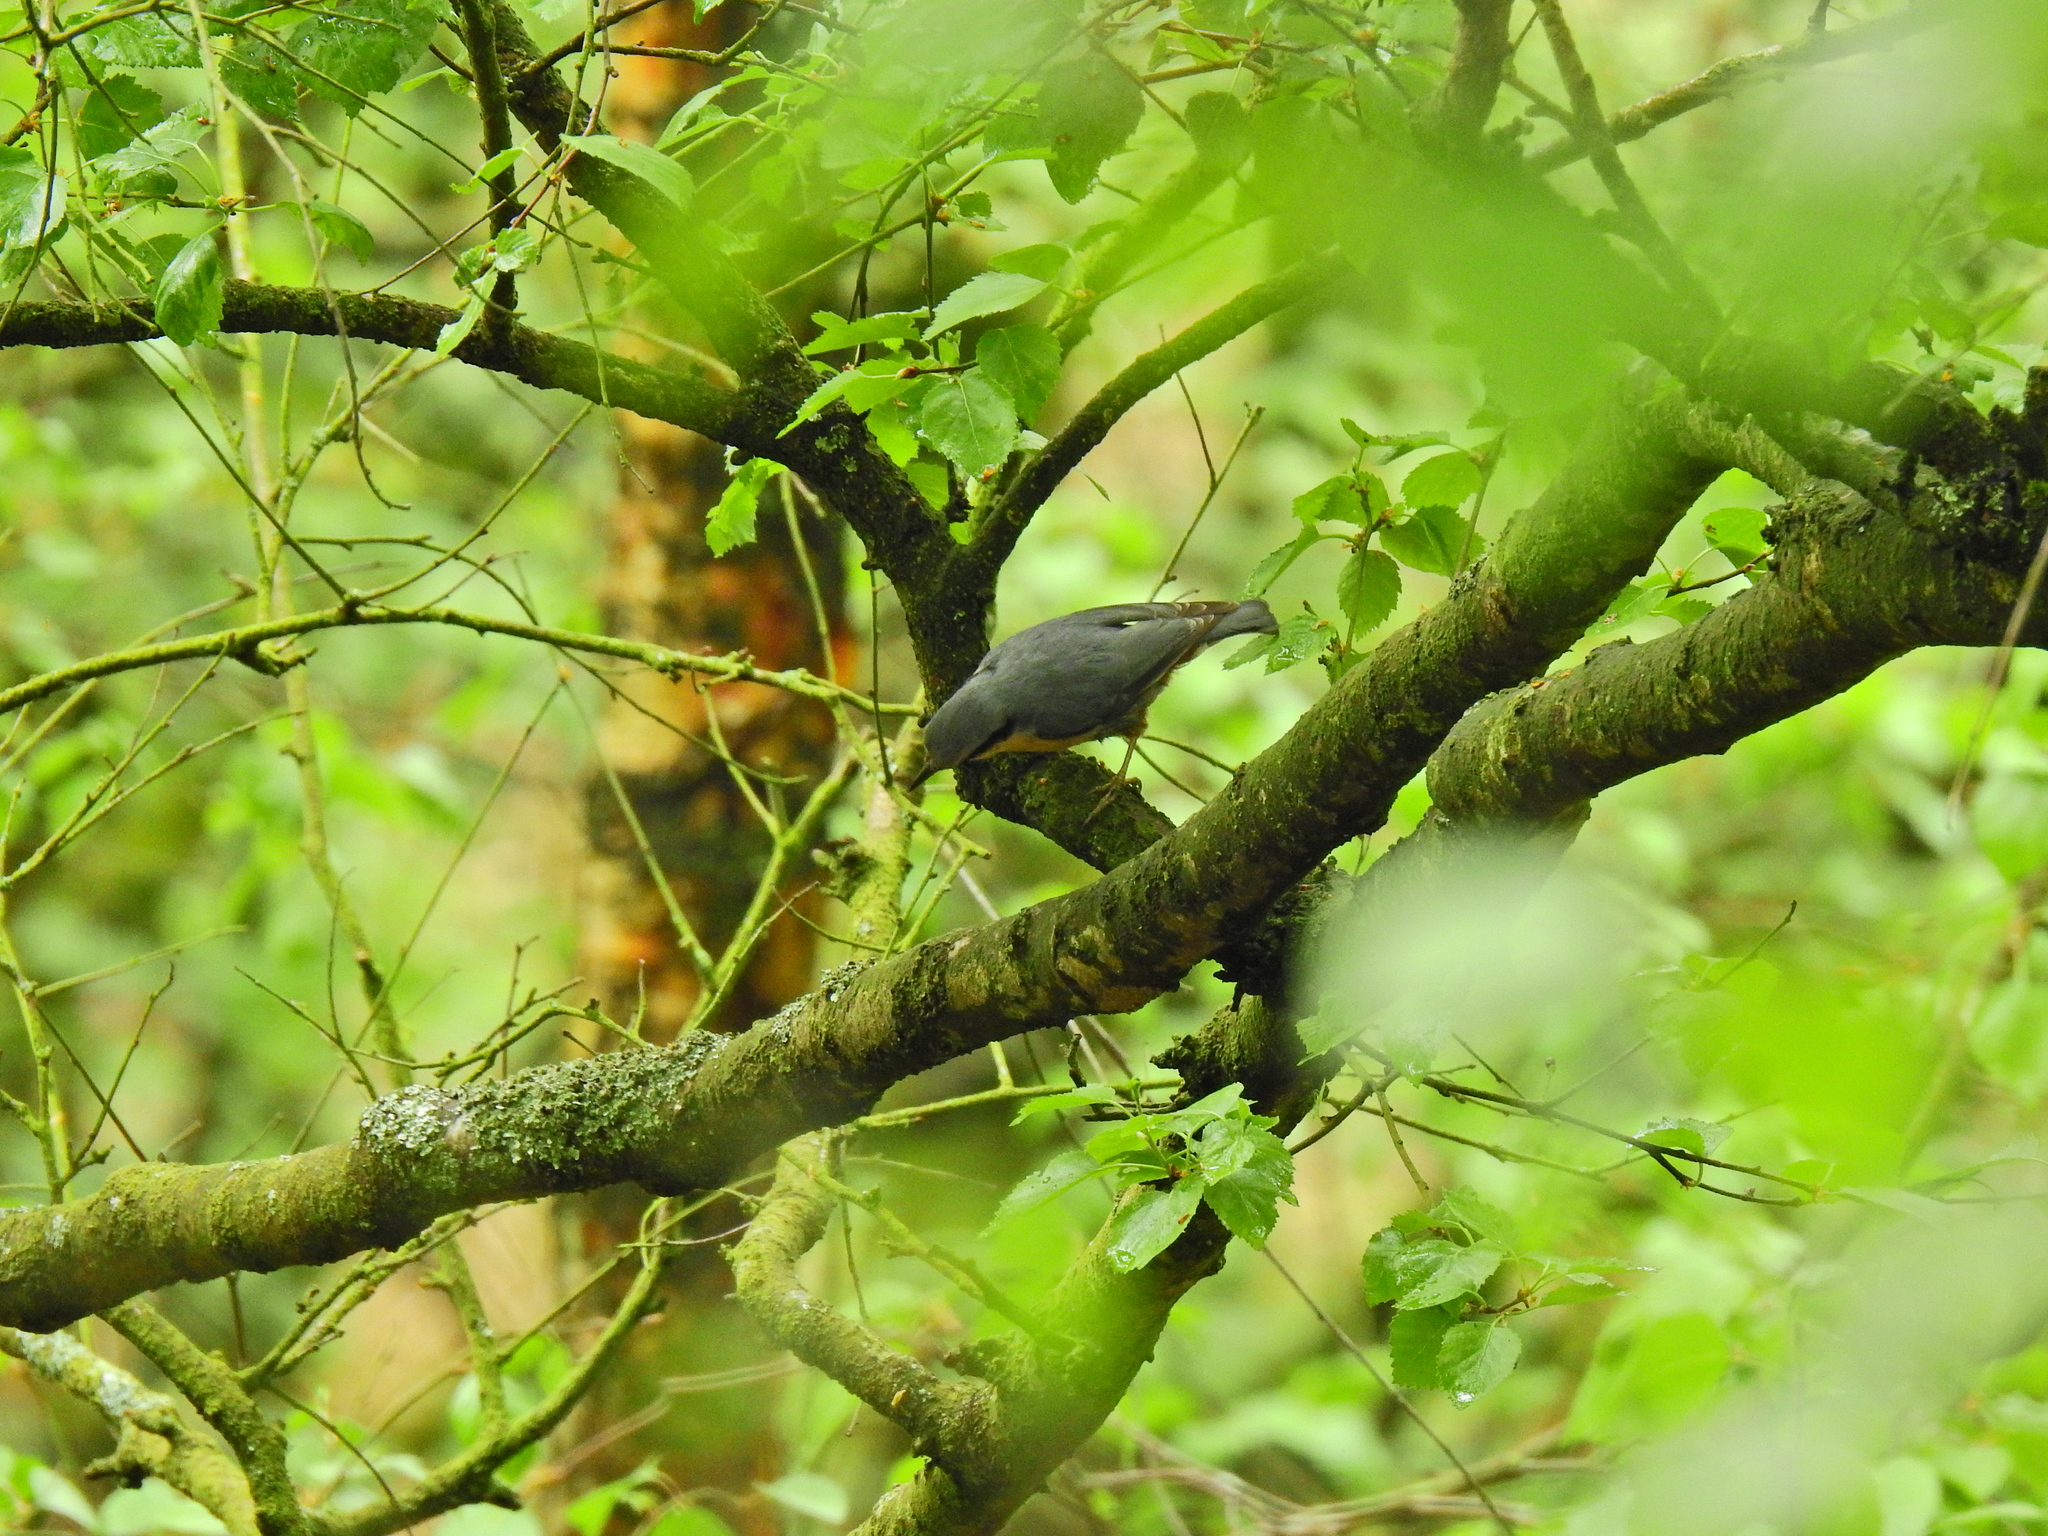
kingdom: Animalia
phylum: Chordata
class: Aves
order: Passeriformes
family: Sittidae
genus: Sitta
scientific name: Sitta europaea
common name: Eurasian nuthatch
